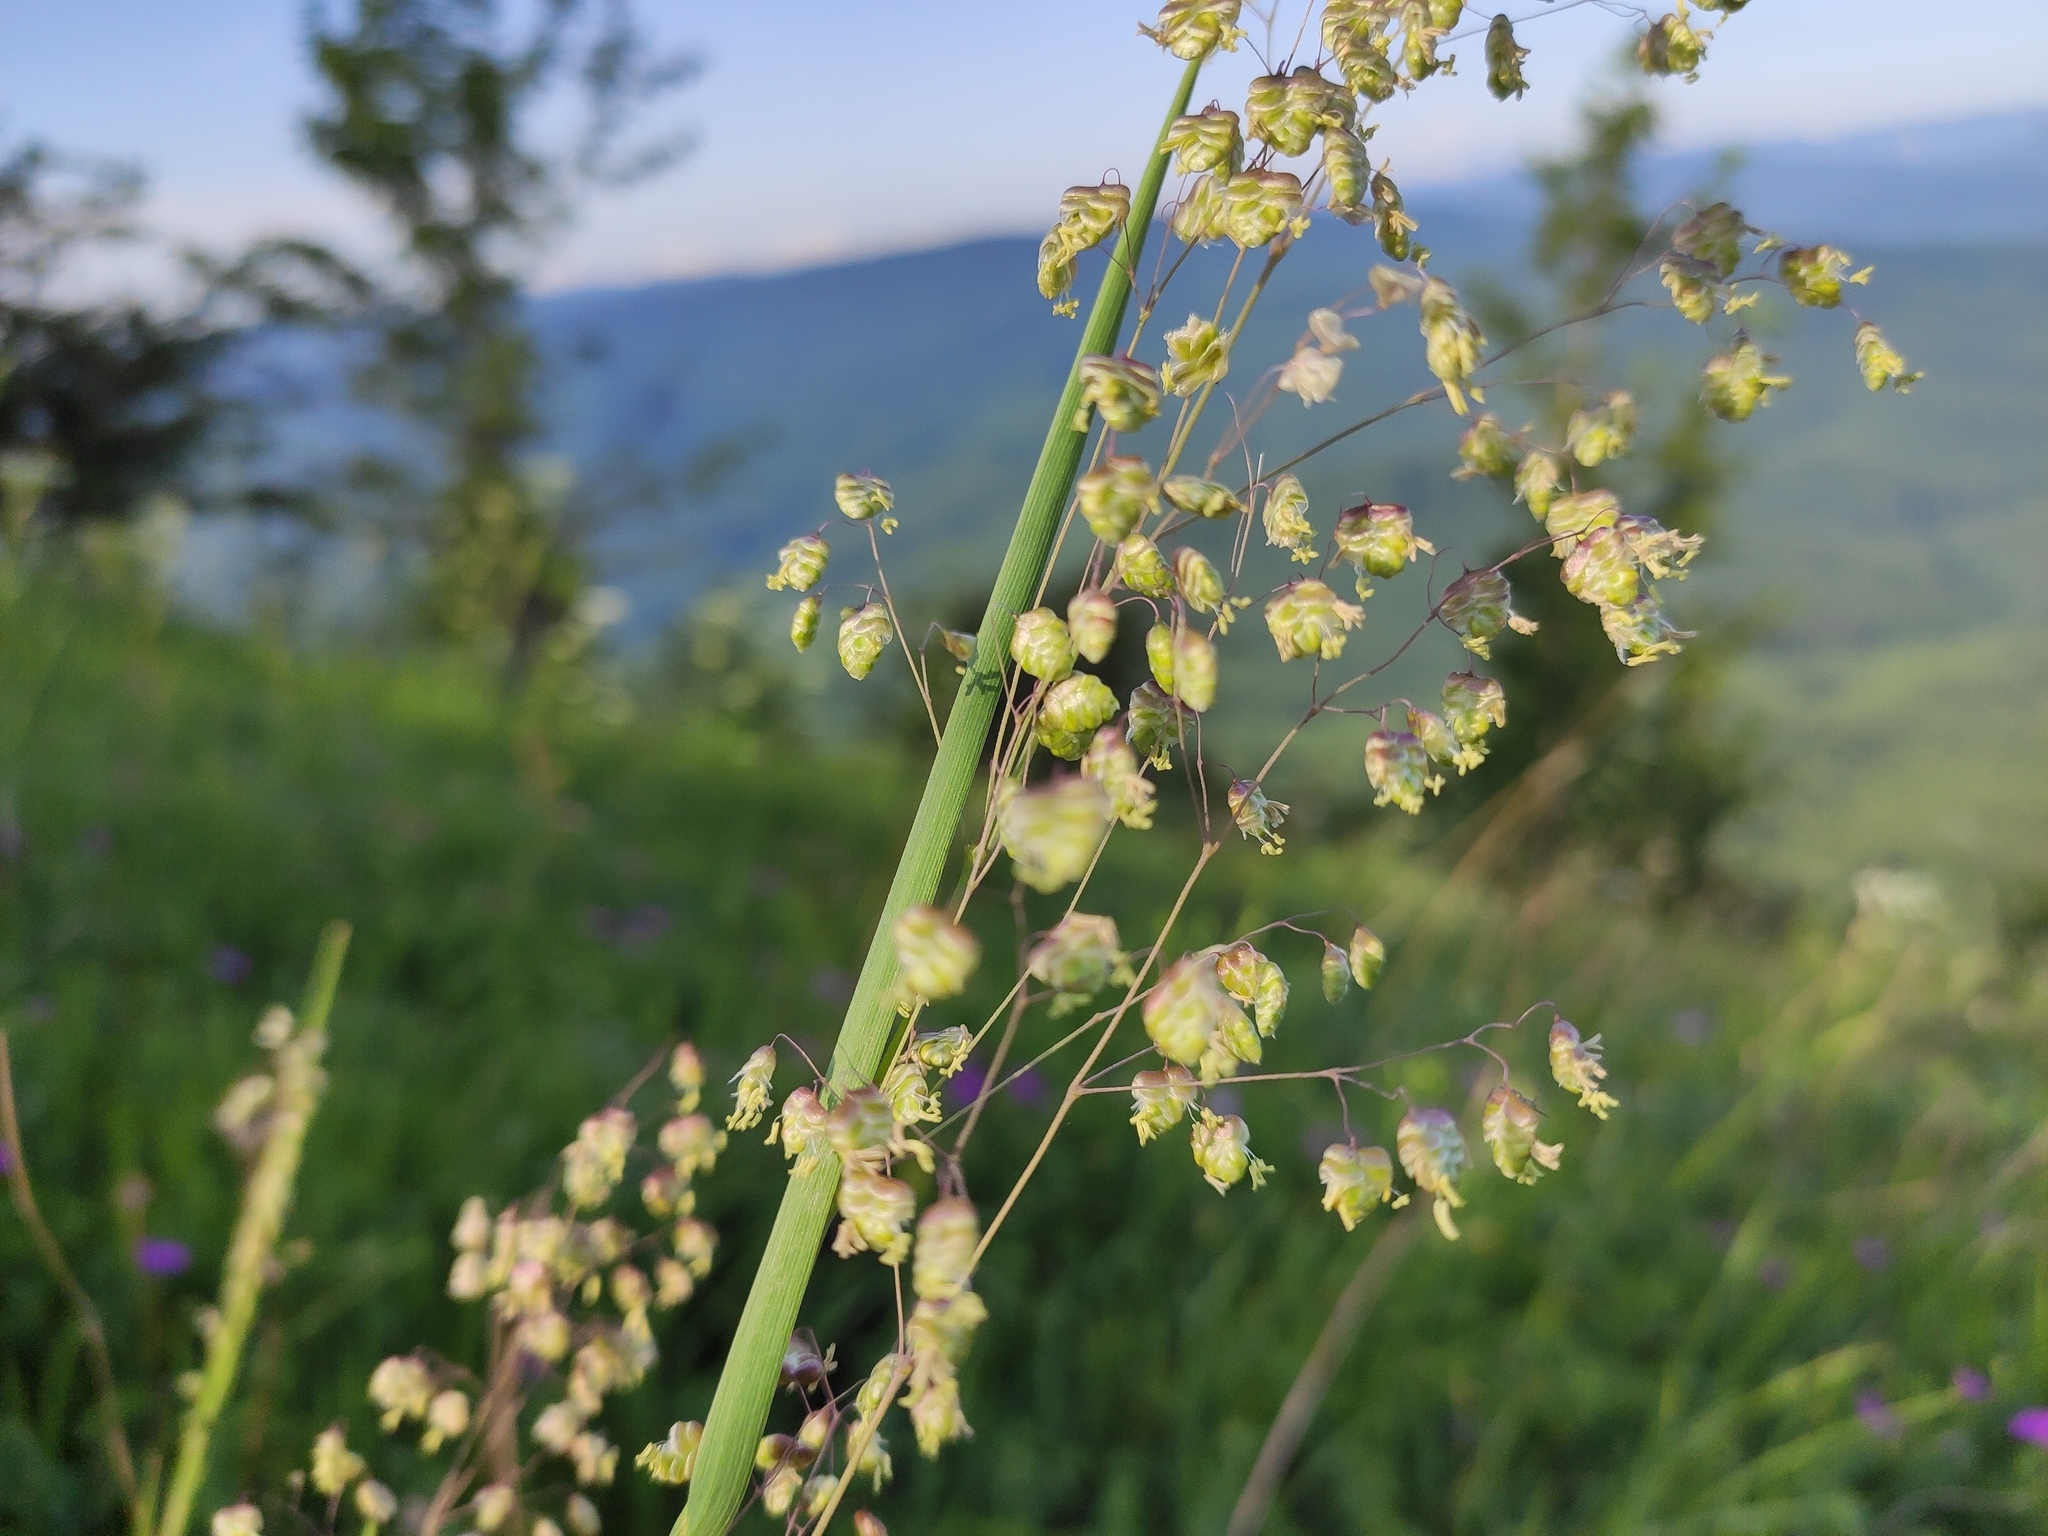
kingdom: Plantae
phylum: Tracheophyta
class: Liliopsida
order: Poales
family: Poaceae
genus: Briza
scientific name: Briza media
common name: Quaking grass
